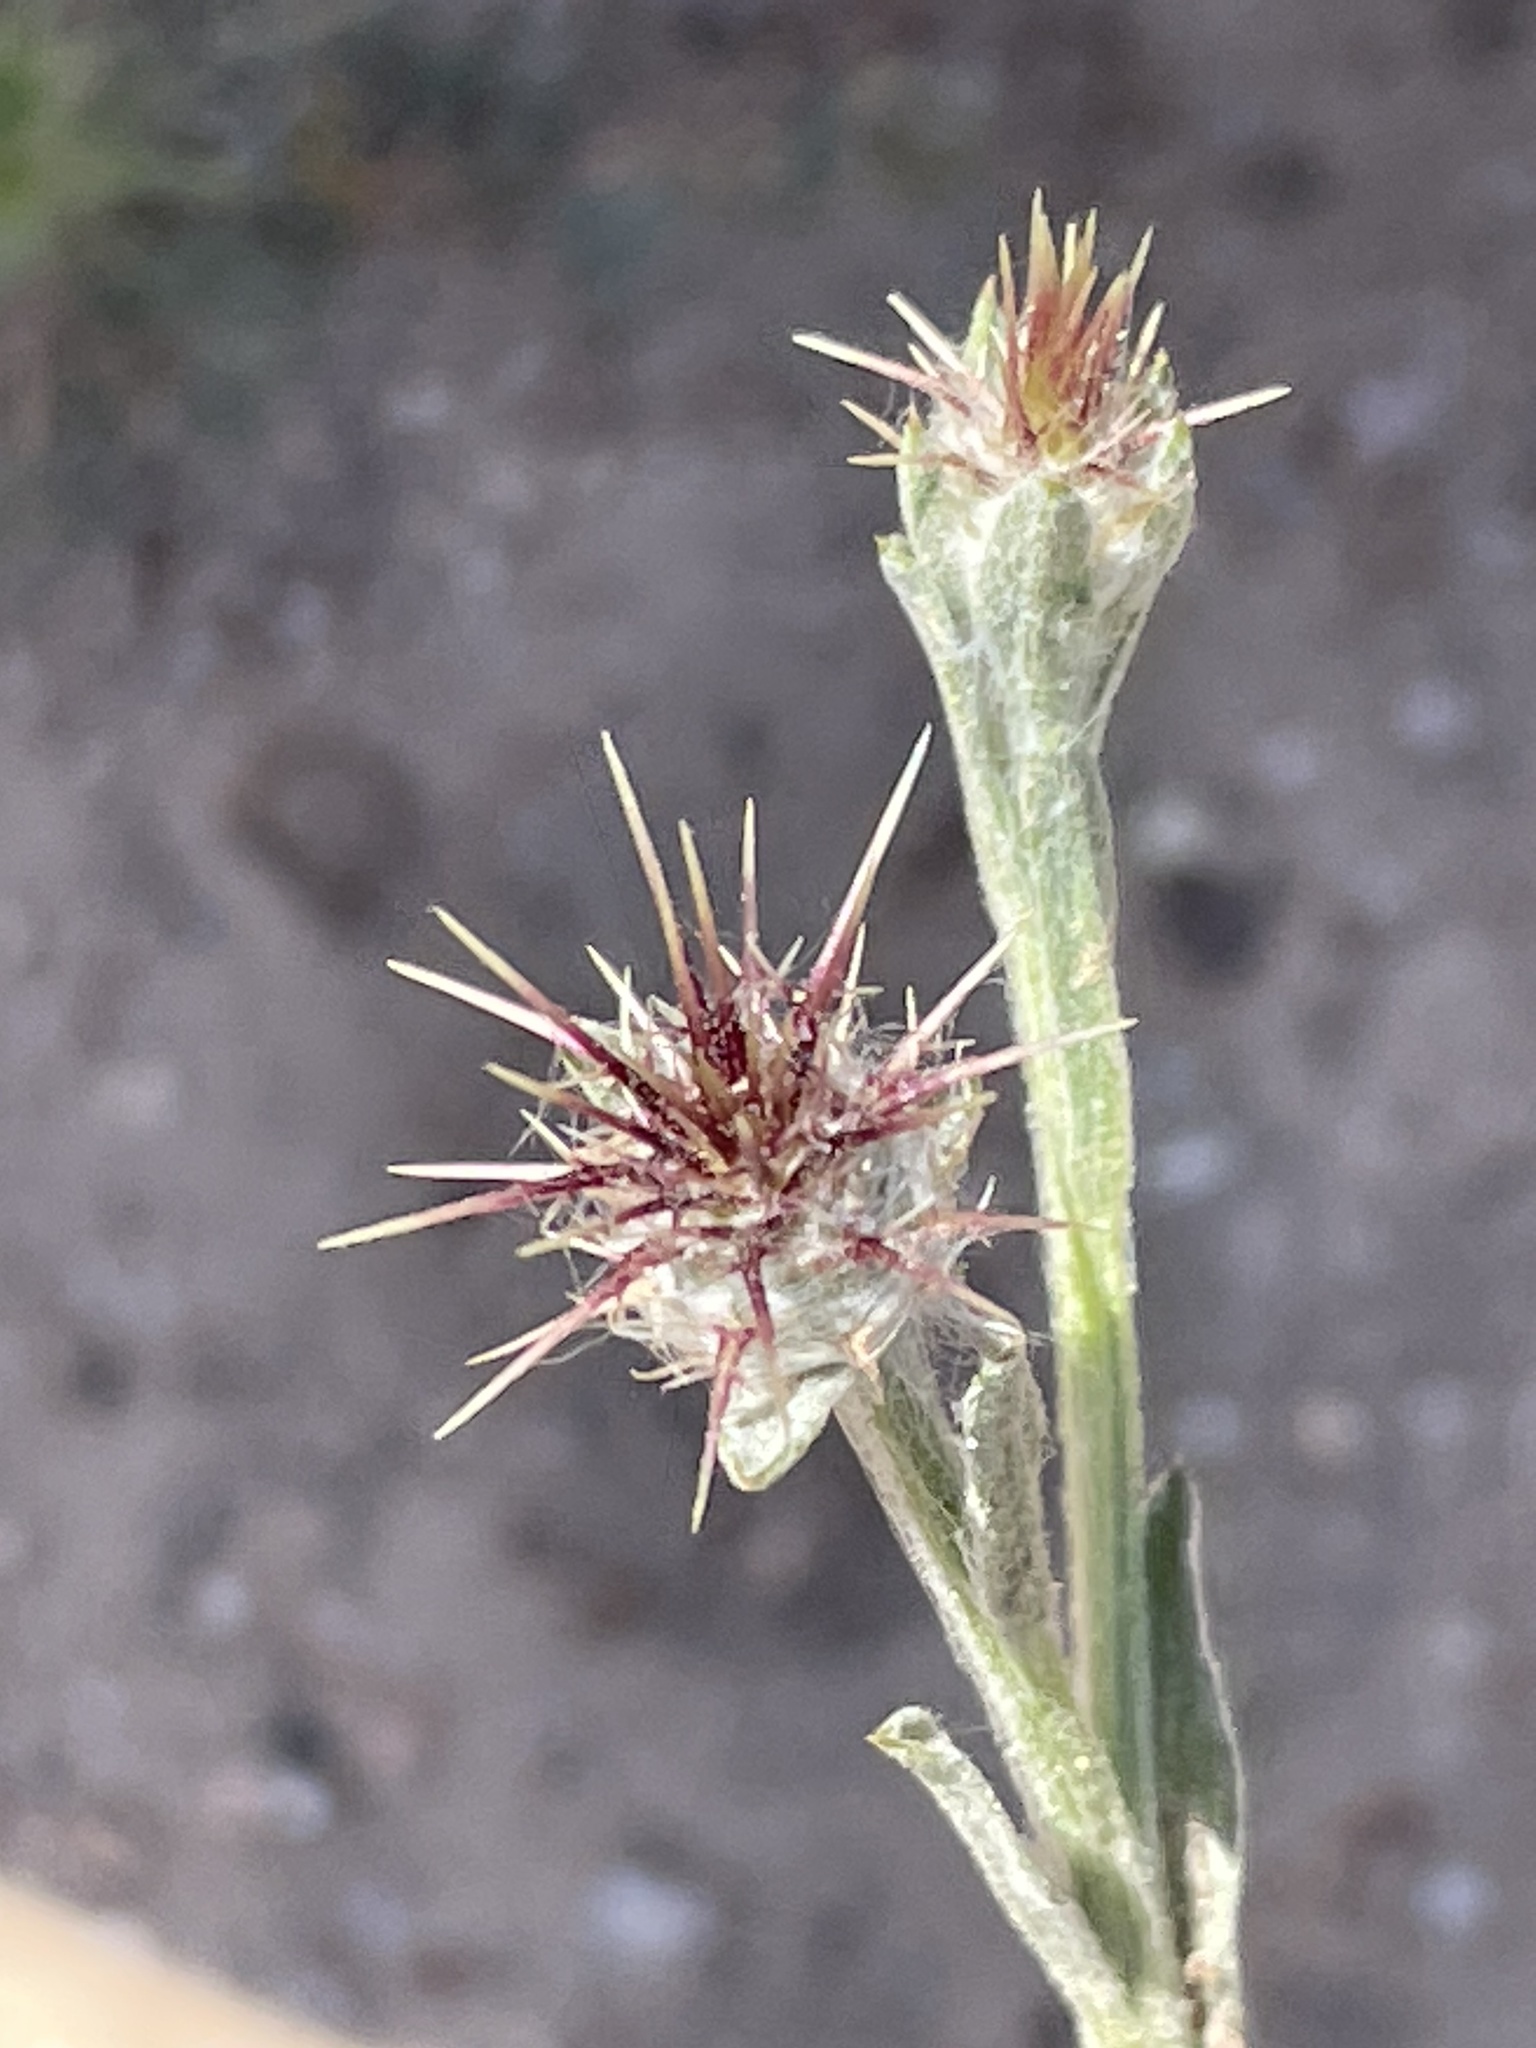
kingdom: Plantae
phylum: Tracheophyta
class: Magnoliopsida
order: Asterales
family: Asteraceae
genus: Centaurea
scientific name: Centaurea melitensis
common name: Maltese star-thistle
